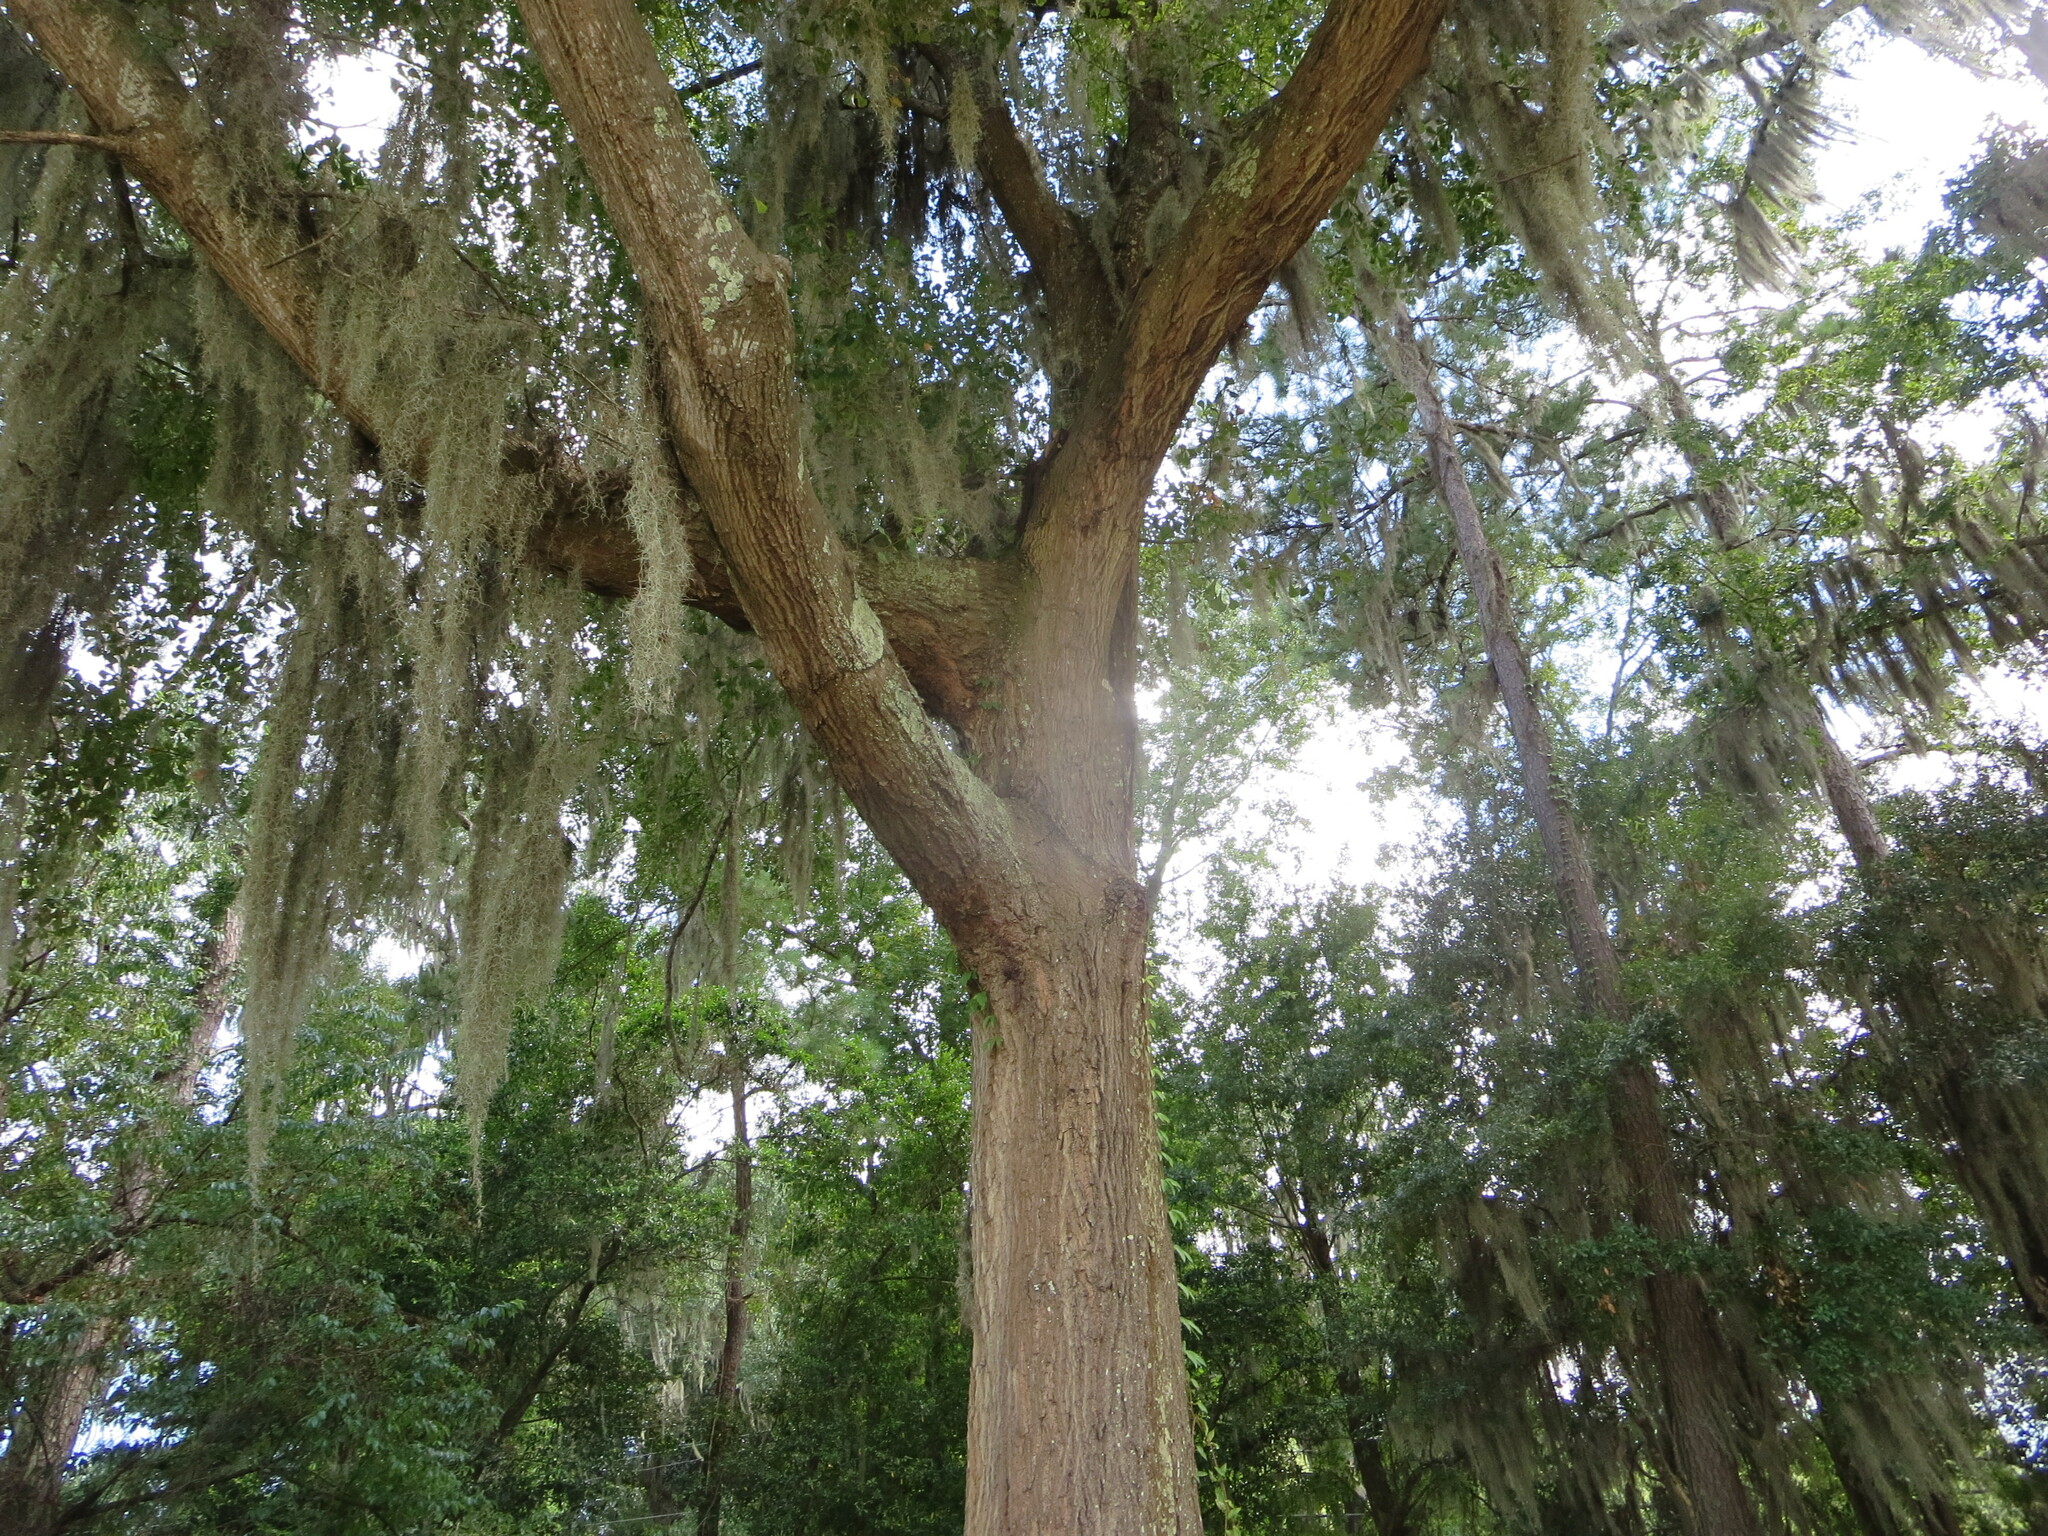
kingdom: Plantae
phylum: Tracheophyta
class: Magnoliopsida
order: Fagales
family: Fagaceae
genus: Quercus
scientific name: Quercus nigra
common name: Water oak
